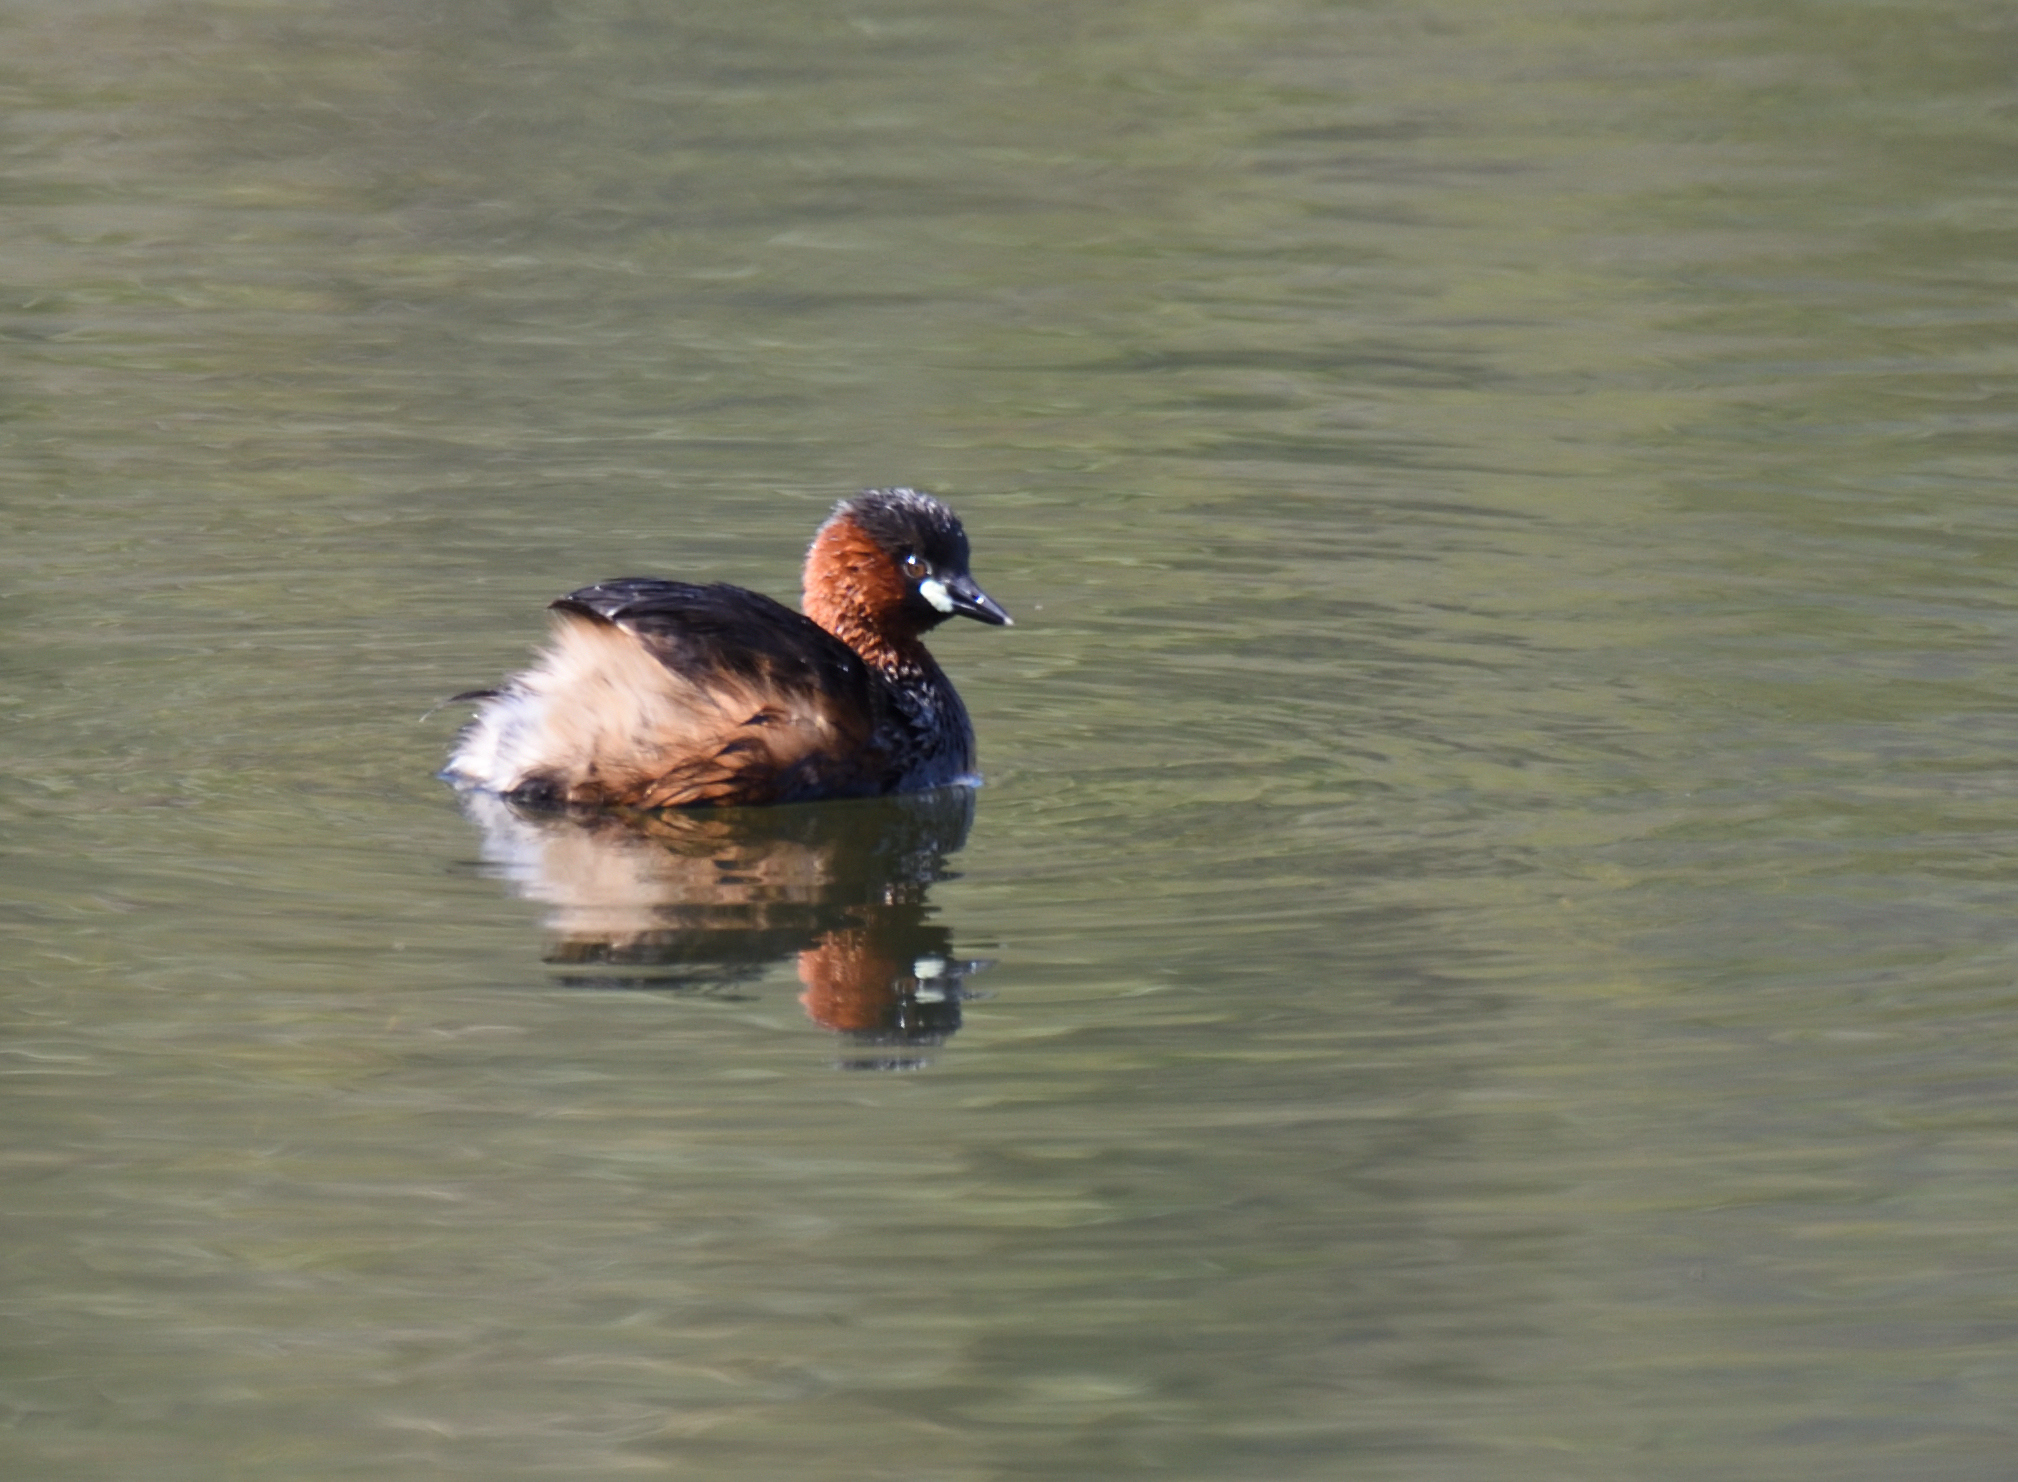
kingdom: Animalia
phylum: Chordata
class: Aves
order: Podicipediformes
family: Podicipedidae
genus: Tachybaptus
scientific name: Tachybaptus ruficollis
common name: Little grebe
